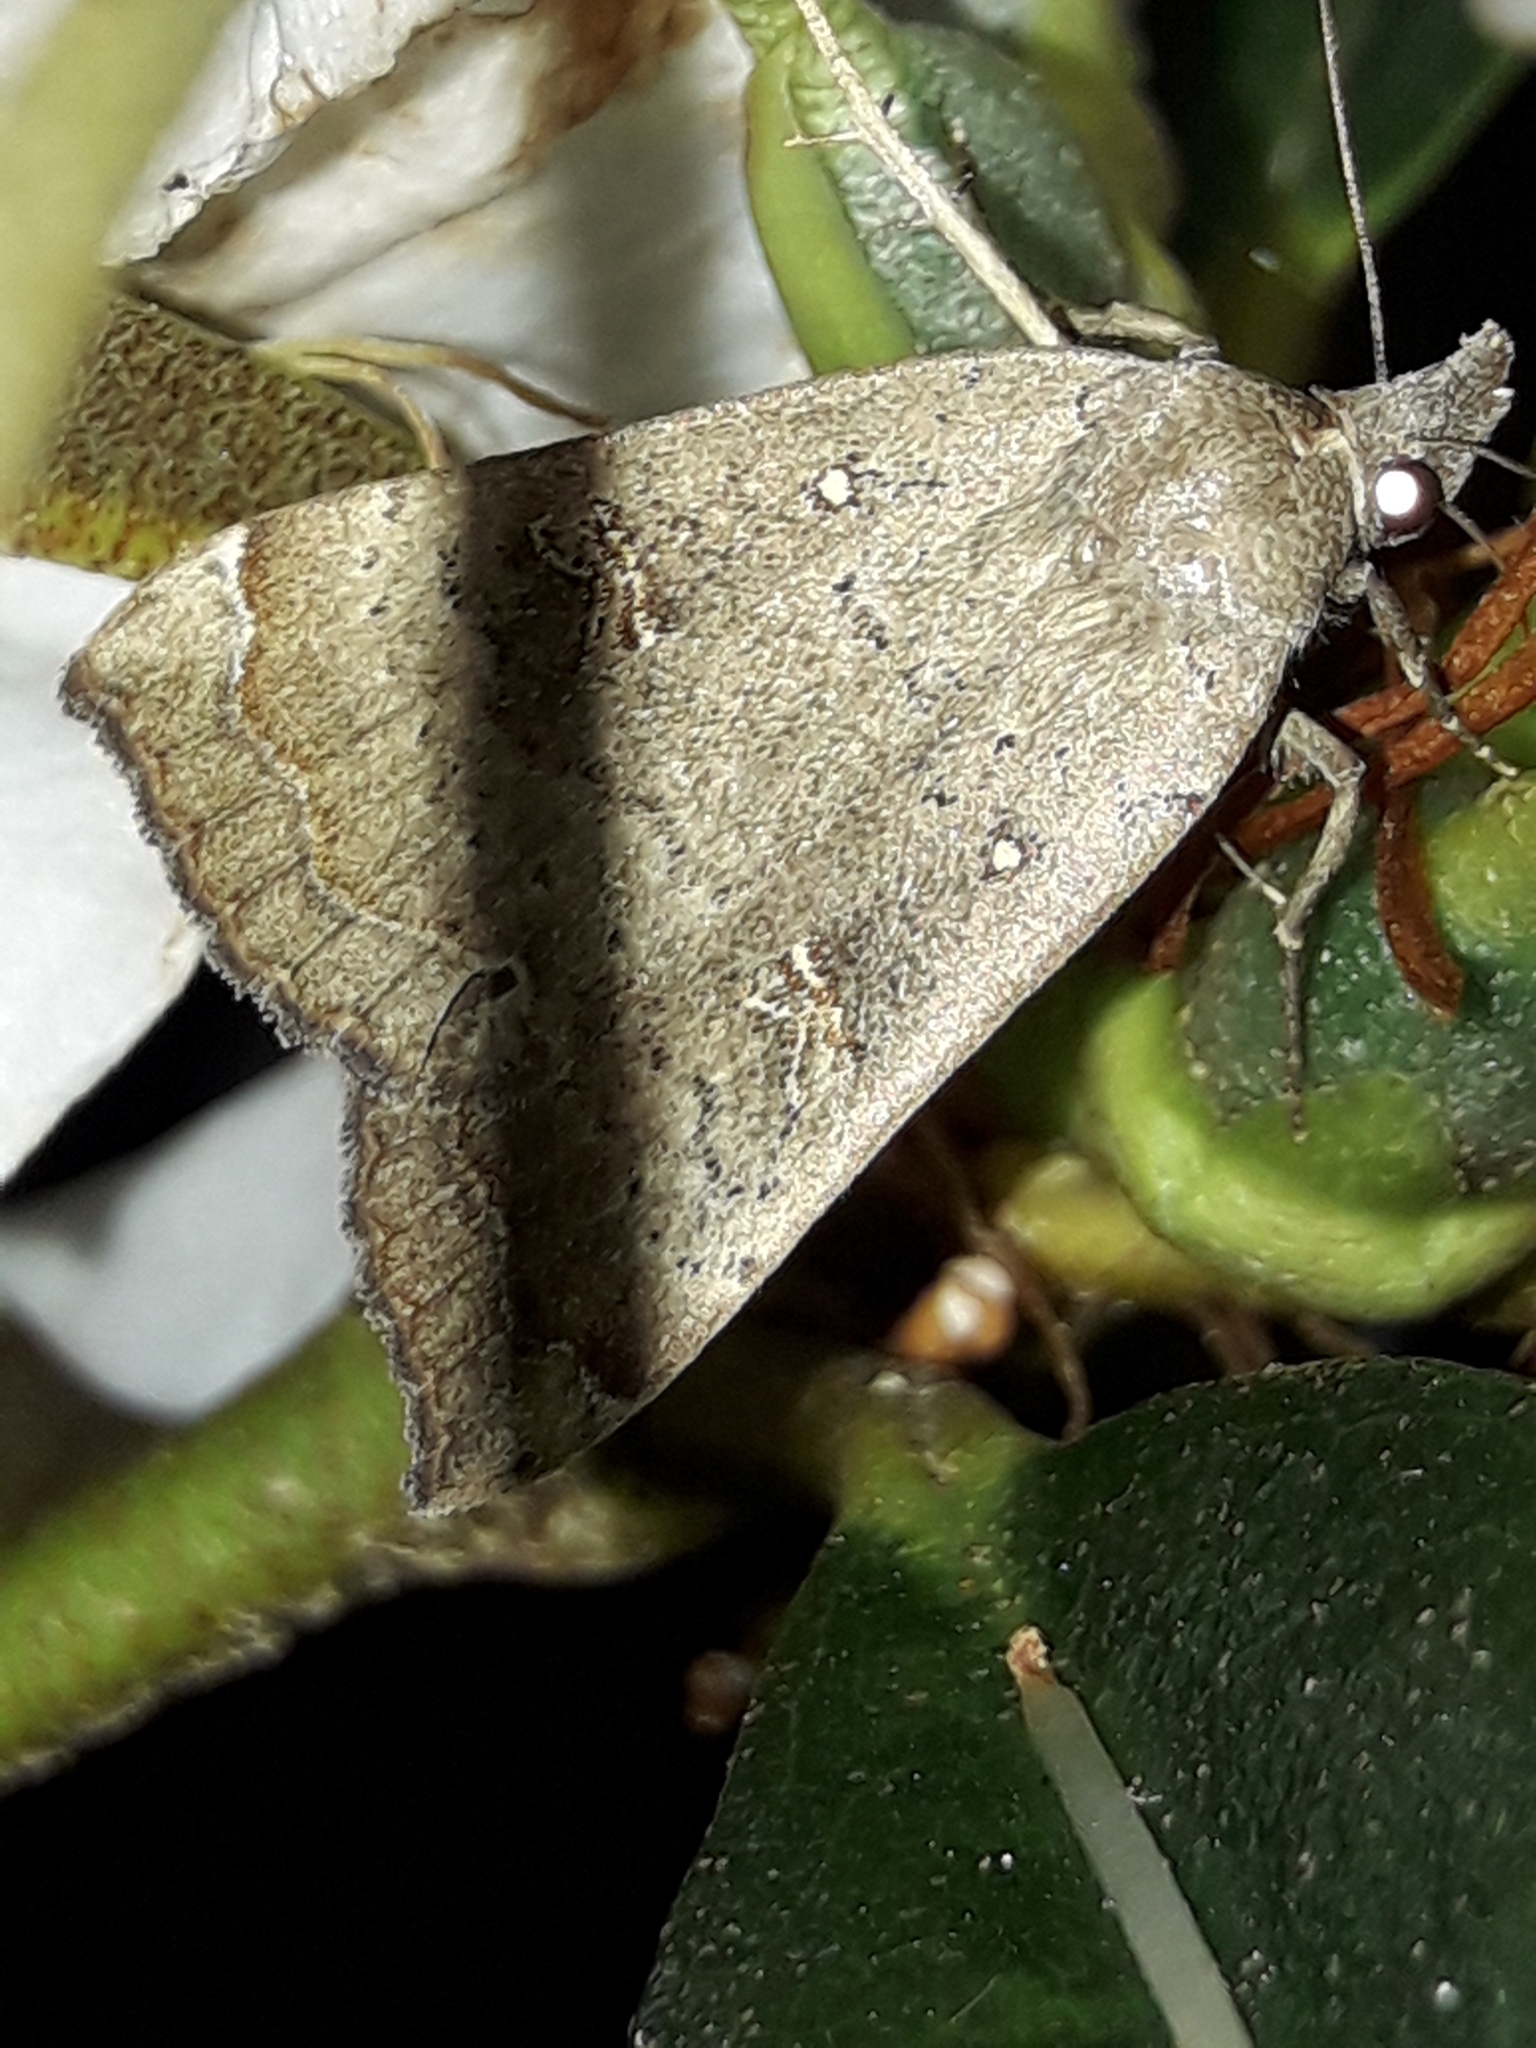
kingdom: Animalia
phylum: Arthropoda
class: Insecta
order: Lepidoptera
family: Erebidae
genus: Rhapsa
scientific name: Rhapsa scotosialis
